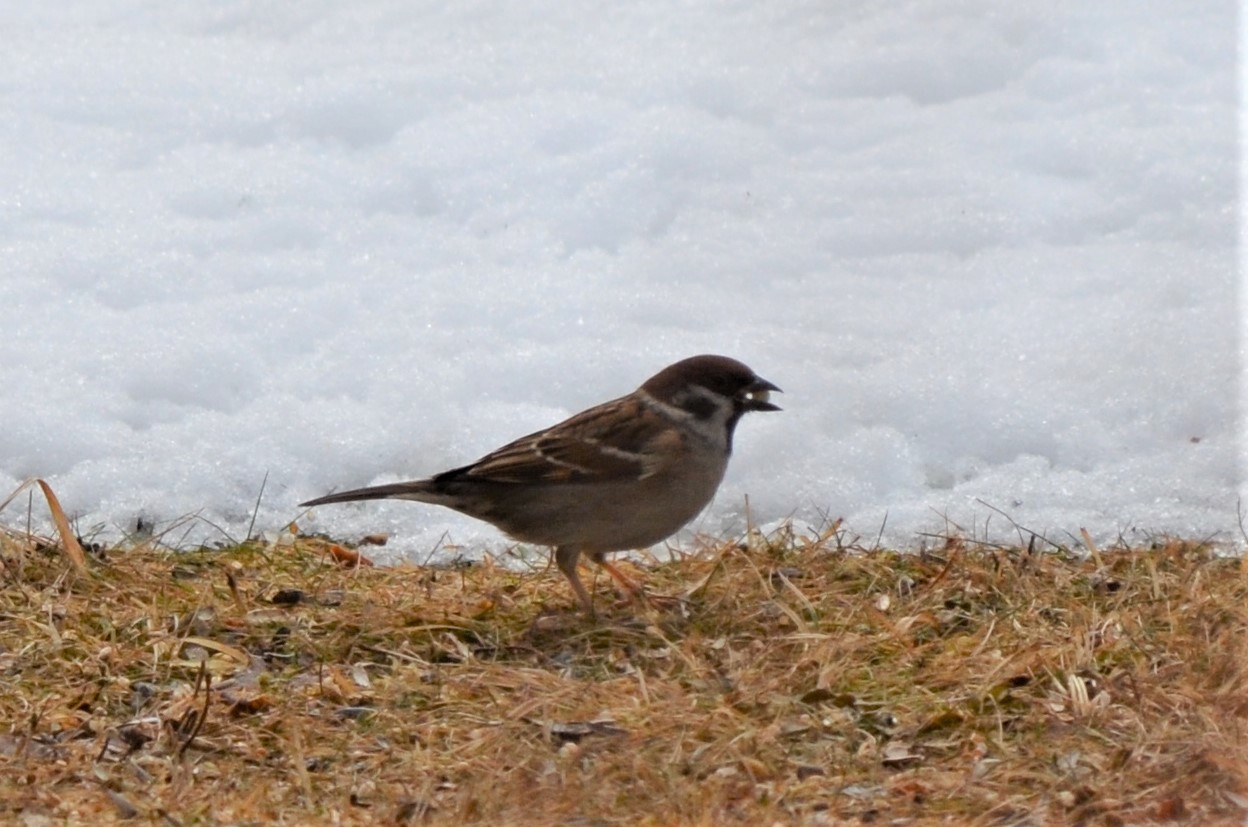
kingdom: Animalia
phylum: Chordata
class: Aves
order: Passeriformes
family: Passeridae
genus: Passer
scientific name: Passer montanus
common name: Eurasian tree sparrow
